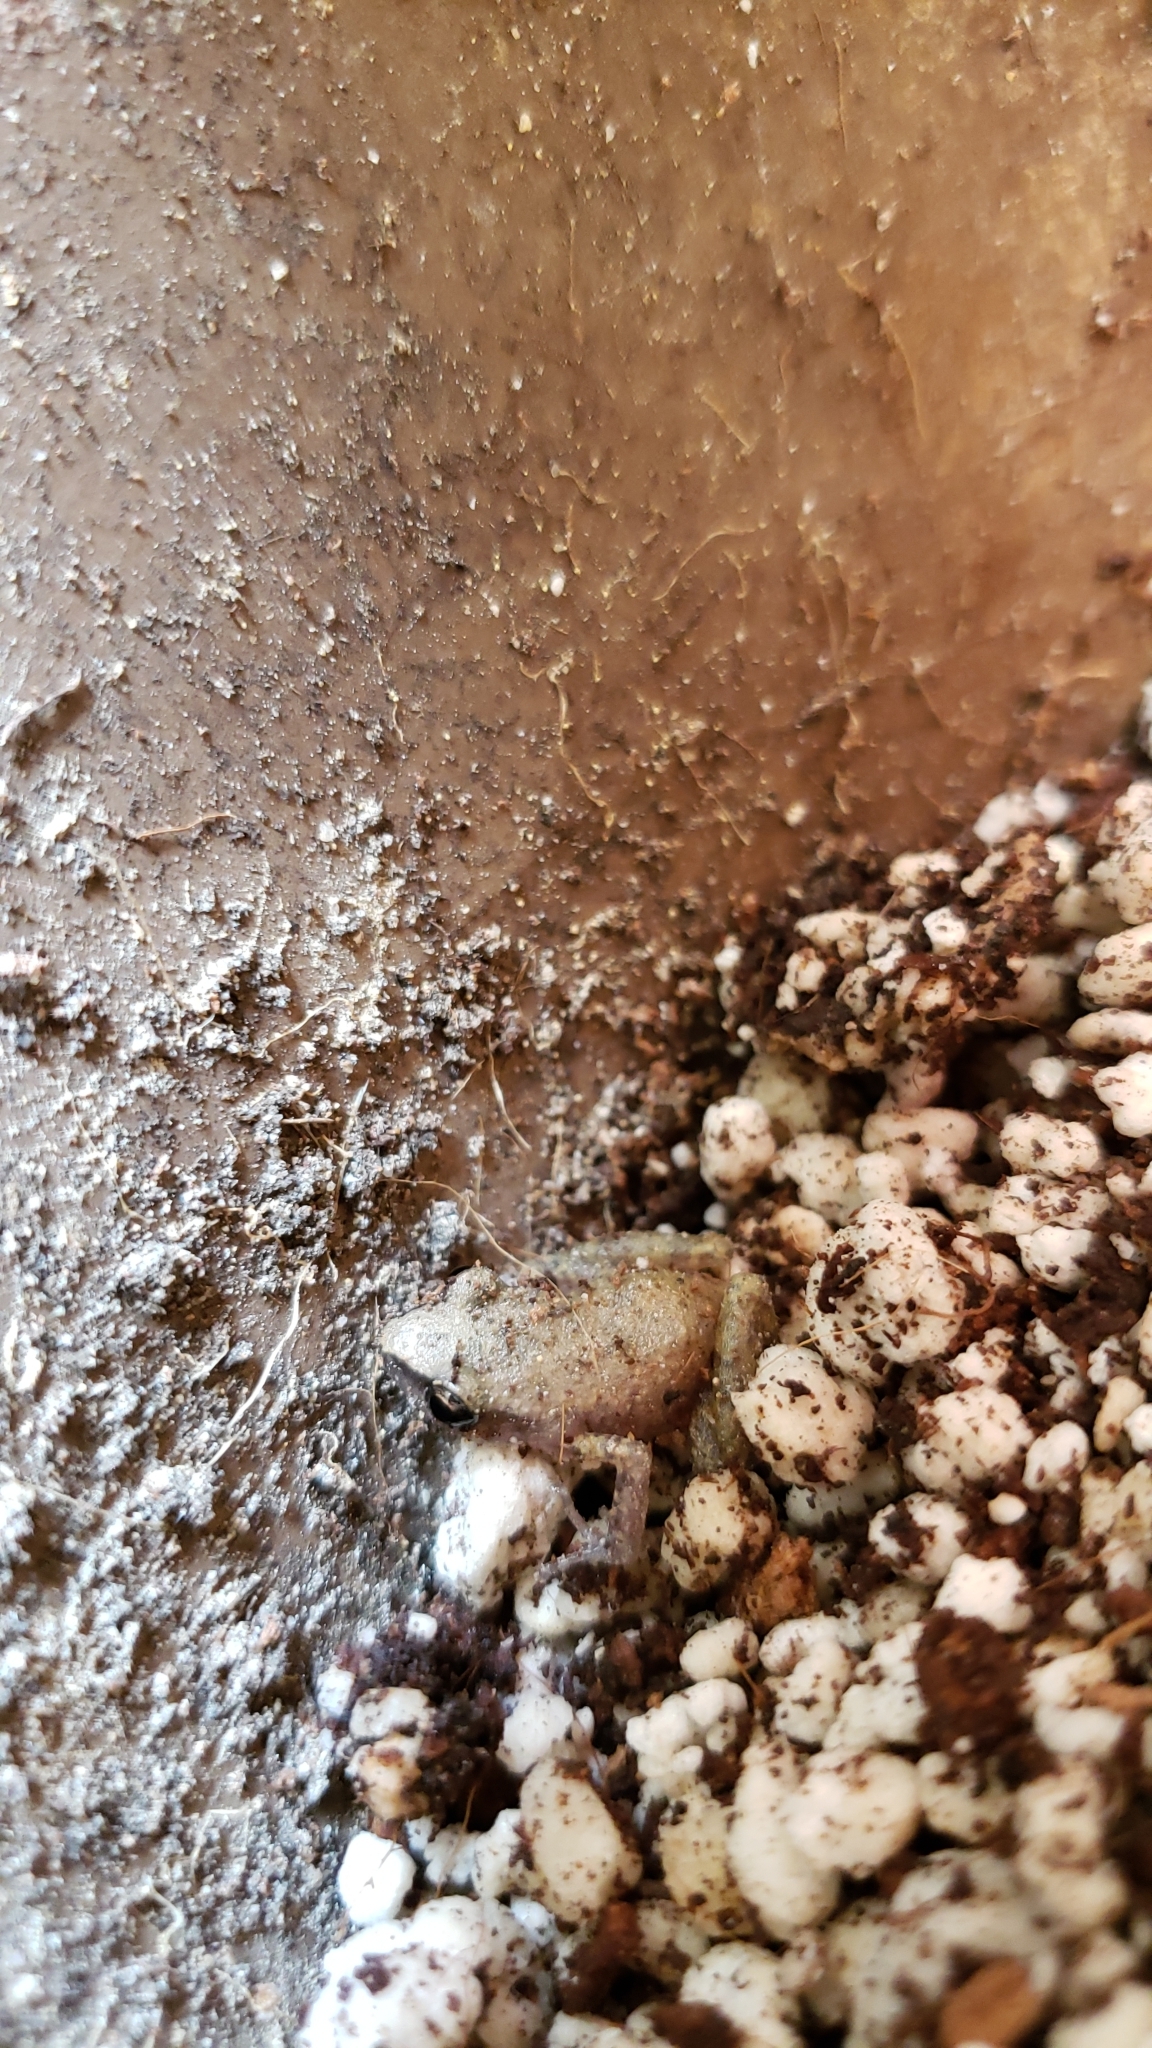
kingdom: Animalia
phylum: Chordata
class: Amphibia
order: Anura
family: Eleutherodactylidae
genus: Eleutherodactylus
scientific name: Eleutherodactylus campi
